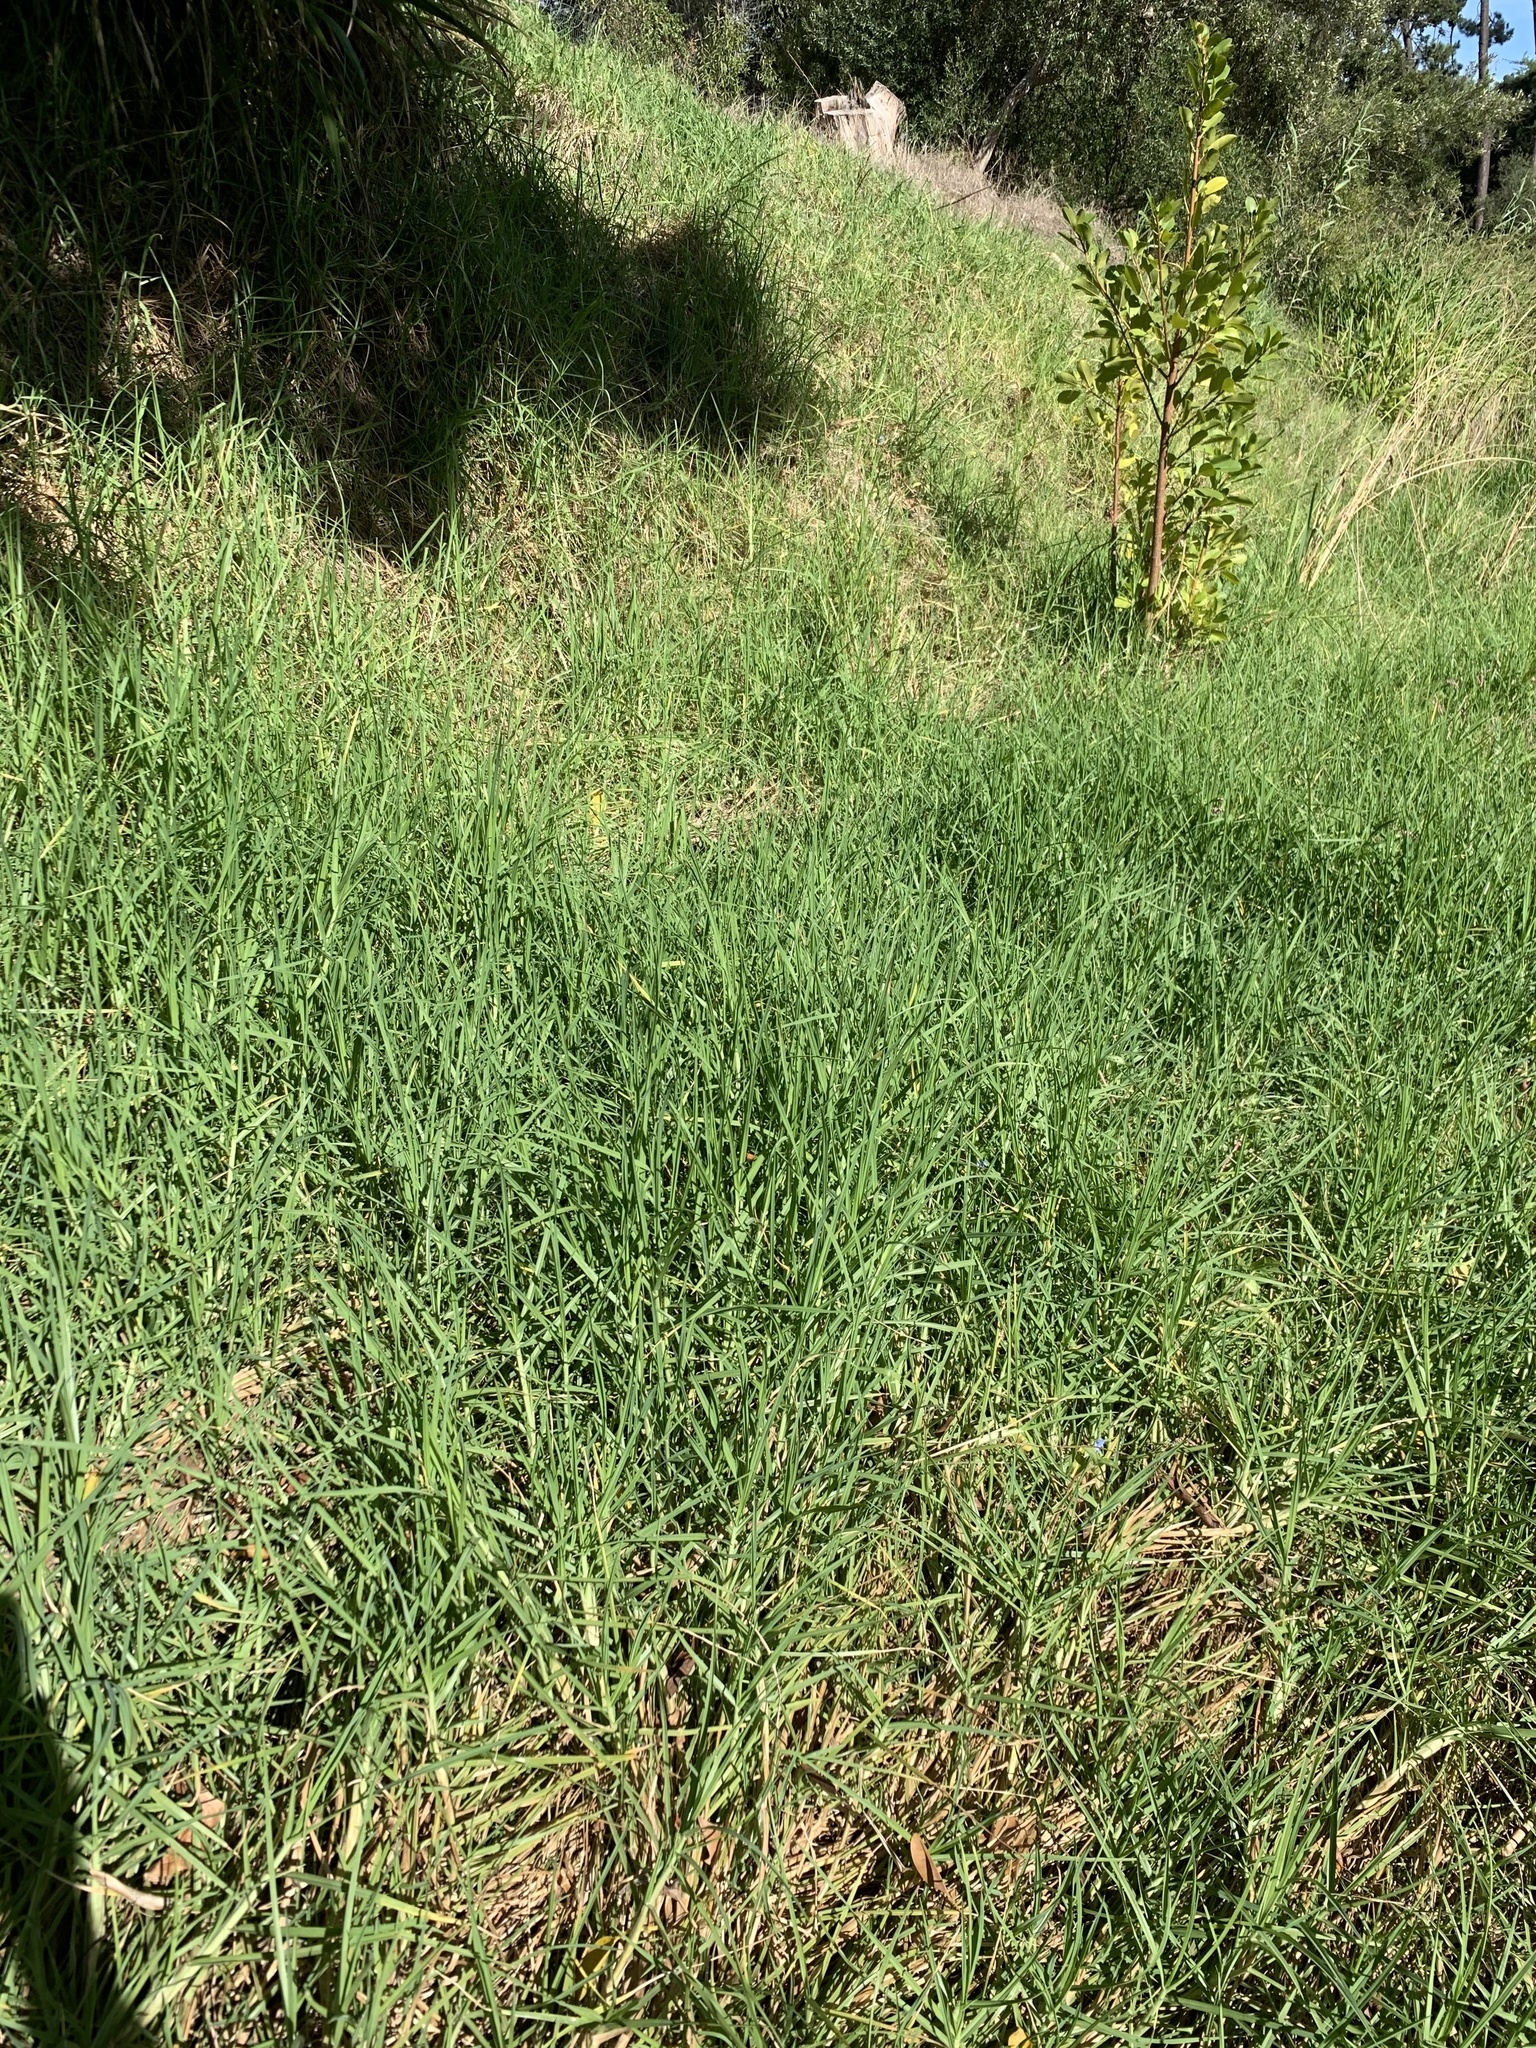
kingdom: Plantae
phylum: Tracheophyta
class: Liliopsida
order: Poales
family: Poaceae
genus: Cenchrus
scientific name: Cenchrus clandestinus
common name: Kikuyugrass
